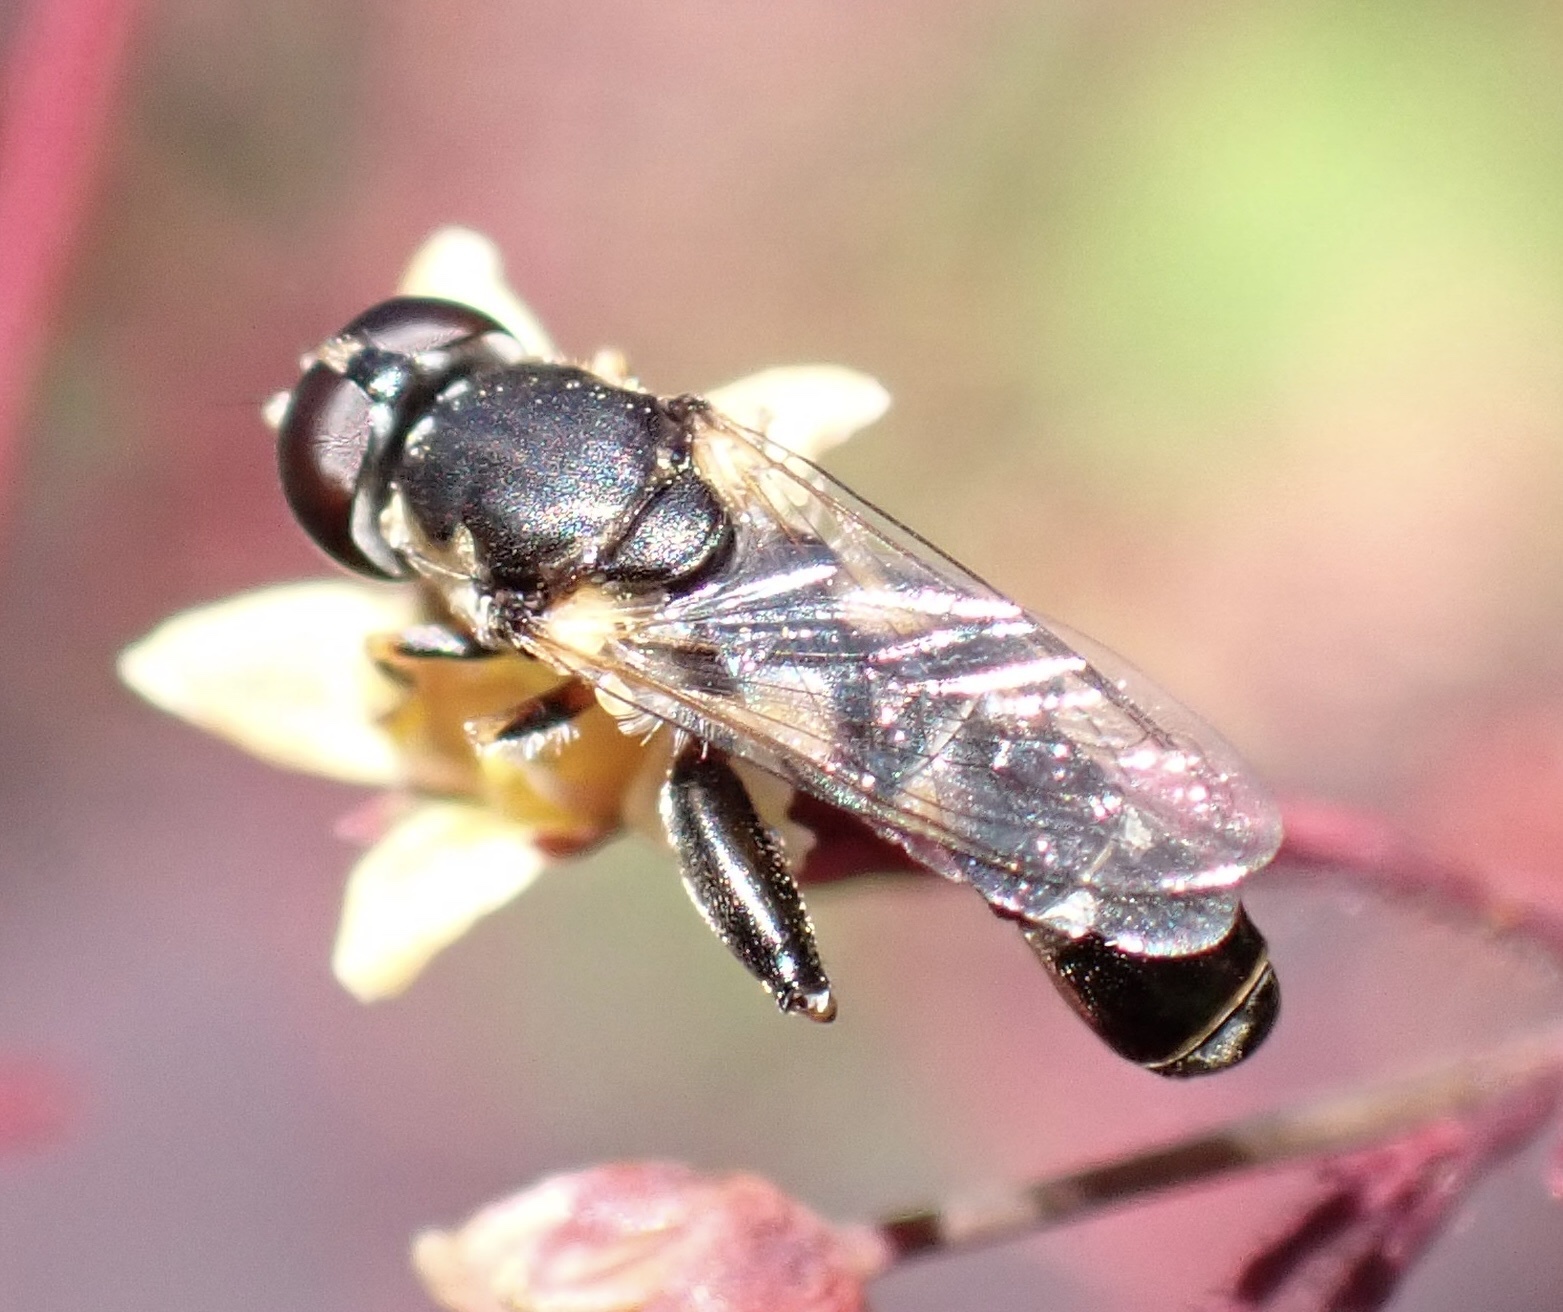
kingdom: Animalia
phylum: Arthropoda
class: Insecta
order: Diptera
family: Syrphidae
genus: Syritta
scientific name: Syritta pipiens
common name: Hover fly
